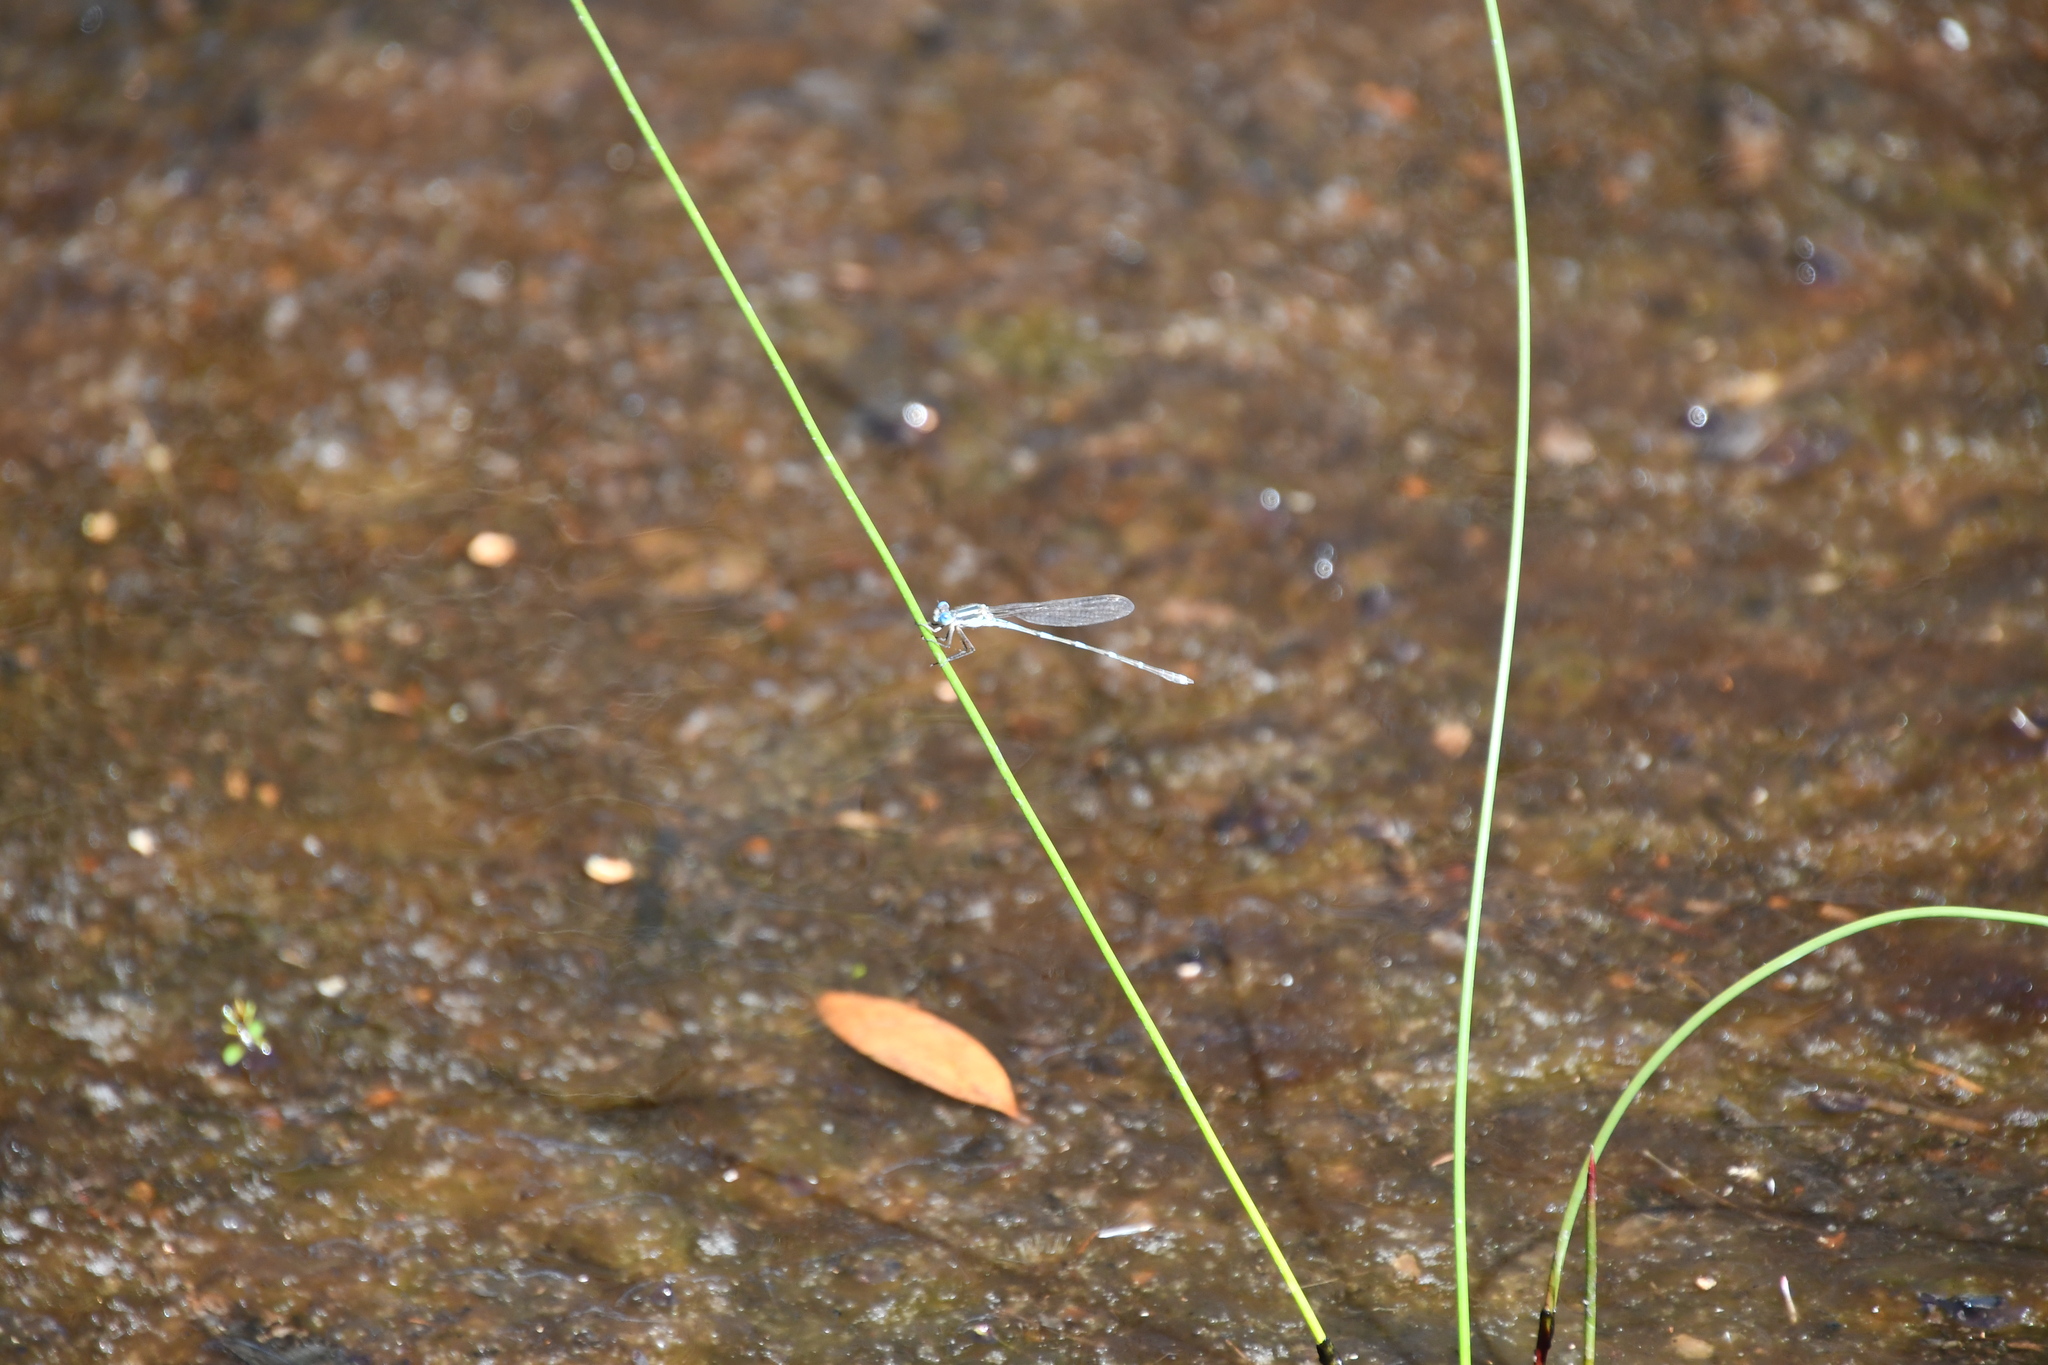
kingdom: Animalia
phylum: Arthropoda
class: Insecta
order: Odonata
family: Lestidae
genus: Austrolestes
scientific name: Austrolestes leda
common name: Wandering ringtail
